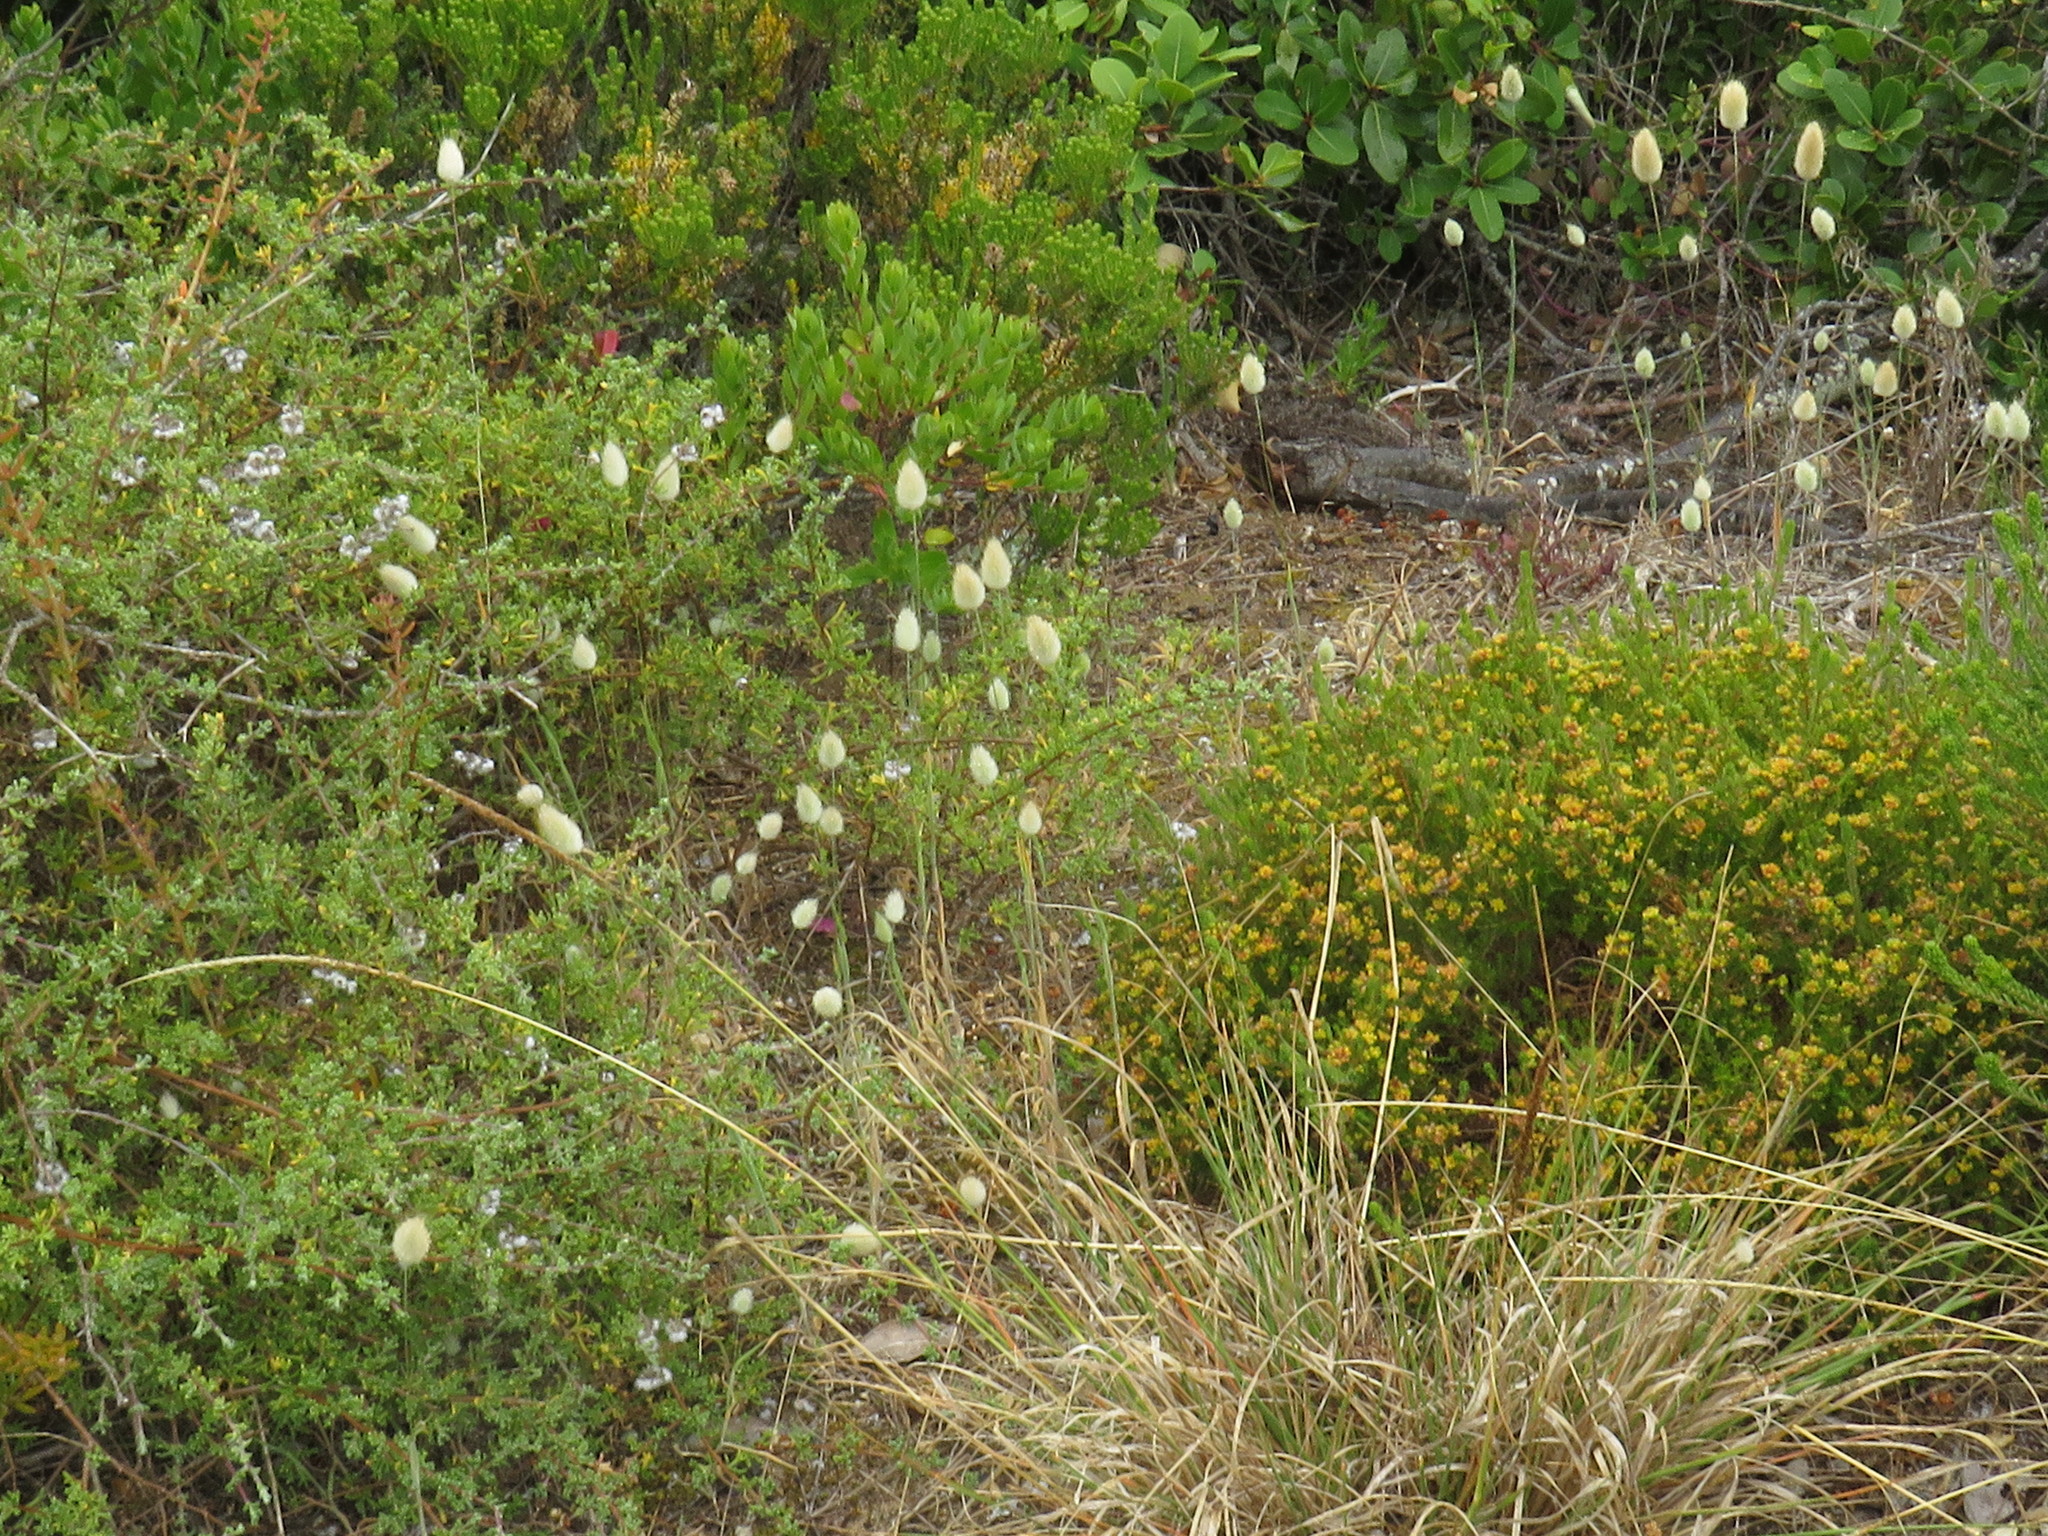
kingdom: Plantae
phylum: Tracheophyta
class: Liliopsida
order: Poales
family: Poaceae
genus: Lagurus
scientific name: Lagurus ovatus
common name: Hare's-tail
